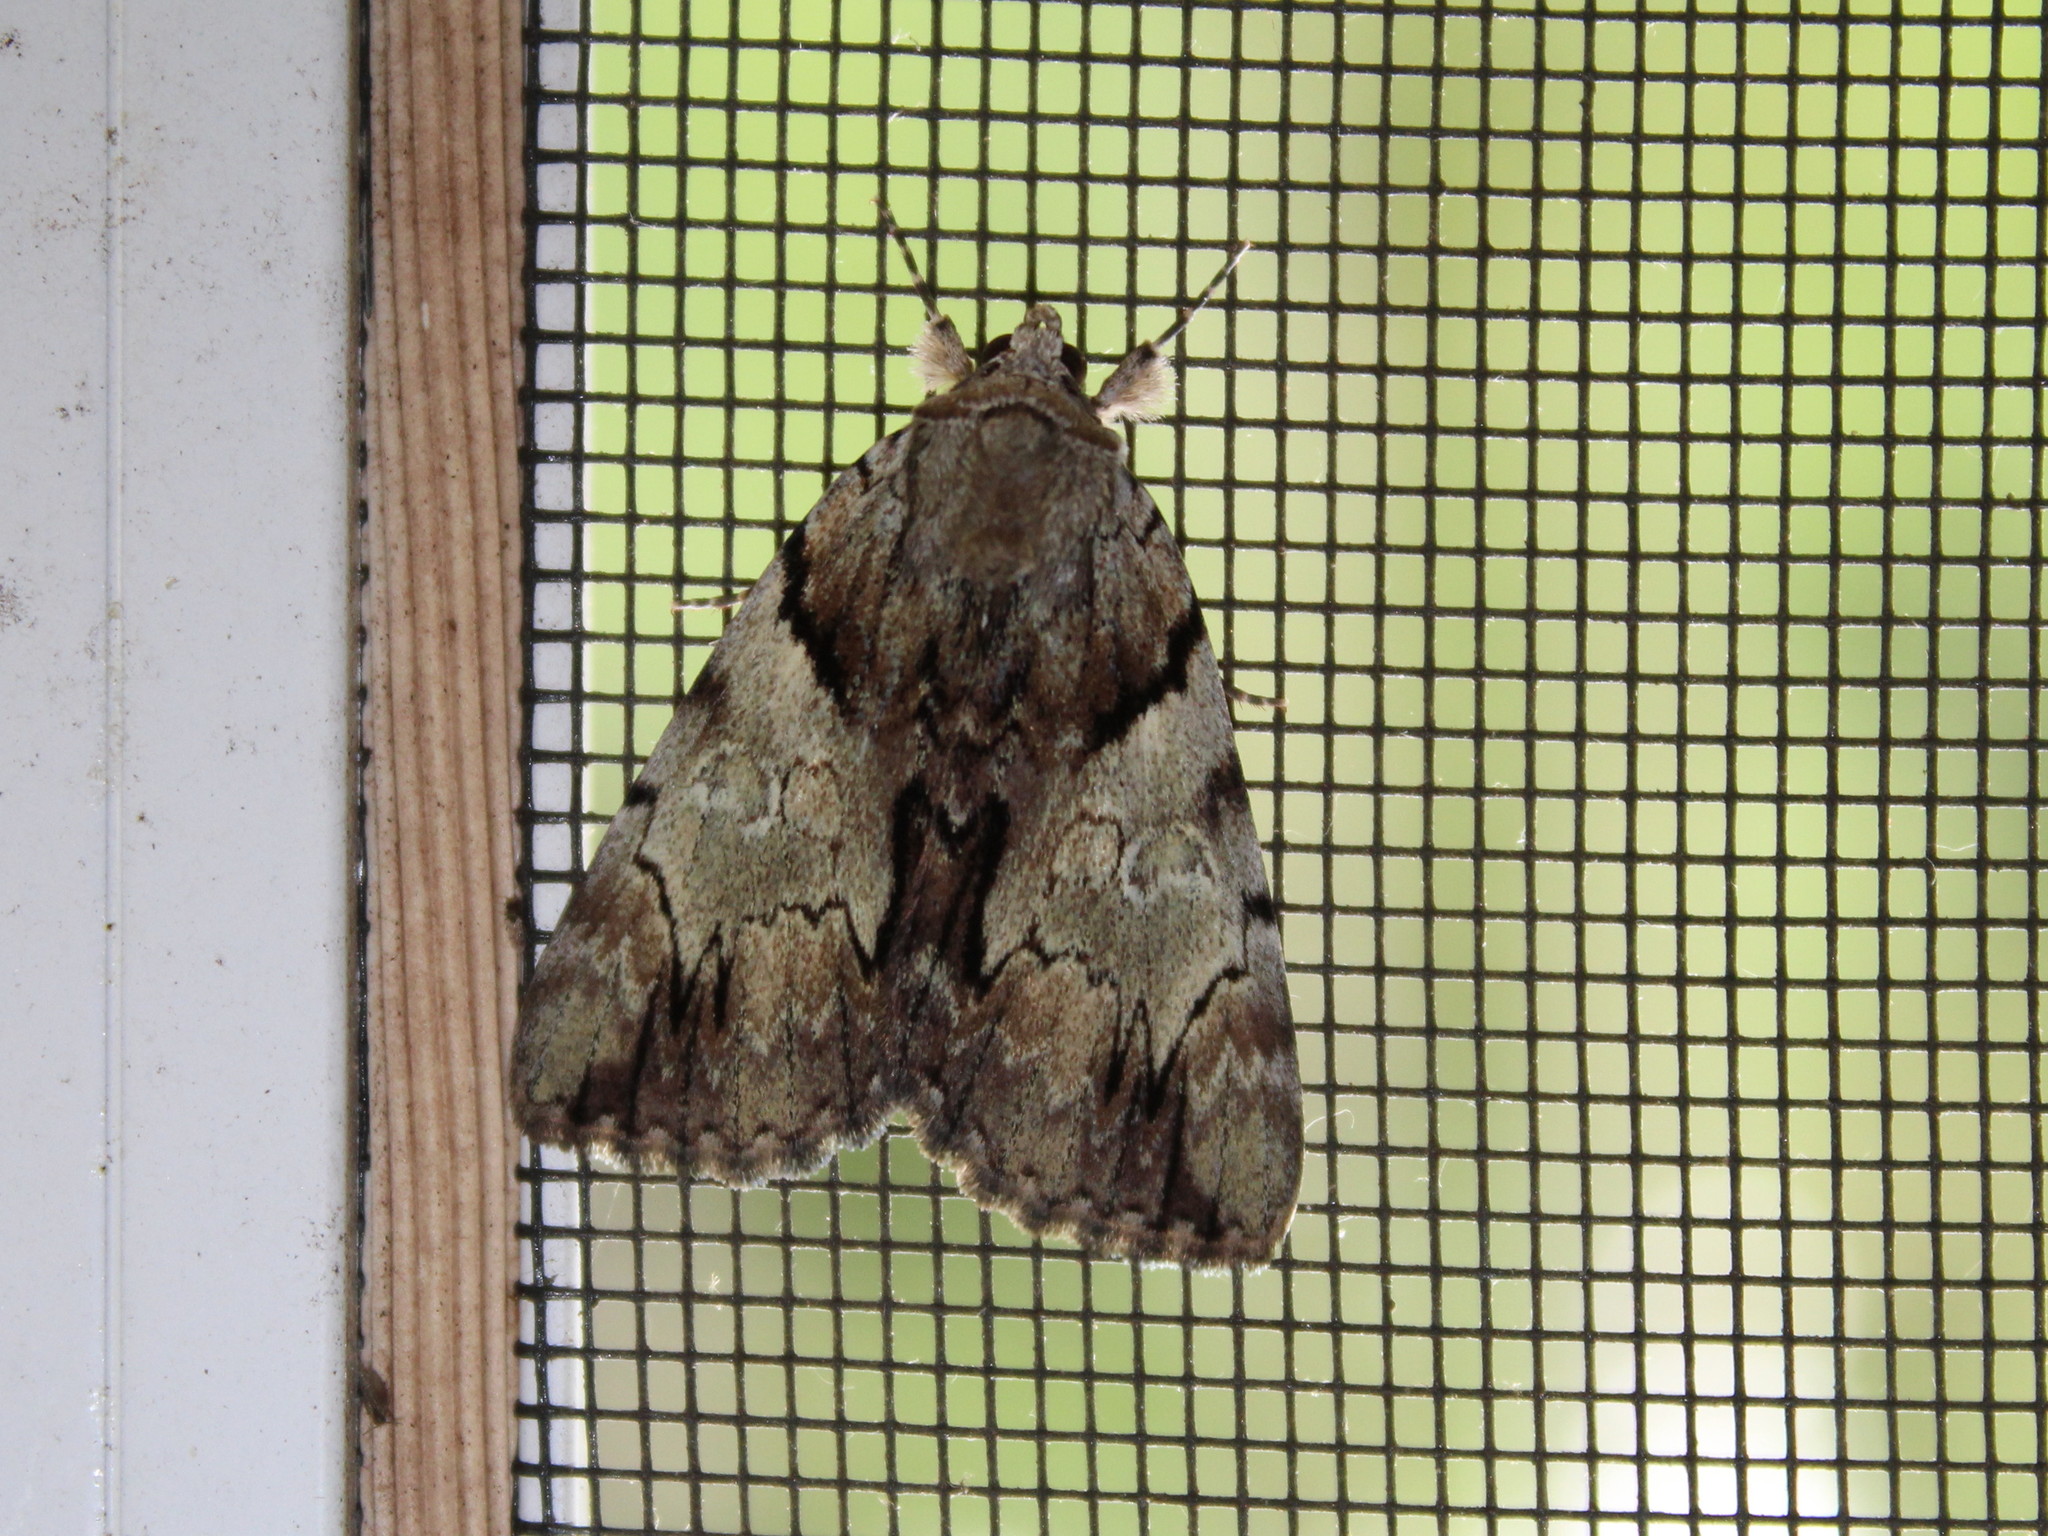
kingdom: Animalia
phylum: Arthropoda
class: Insecta
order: Lepidoptera
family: Erebidae
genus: Catocala
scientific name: Catocala blandula
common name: Charming underwing
